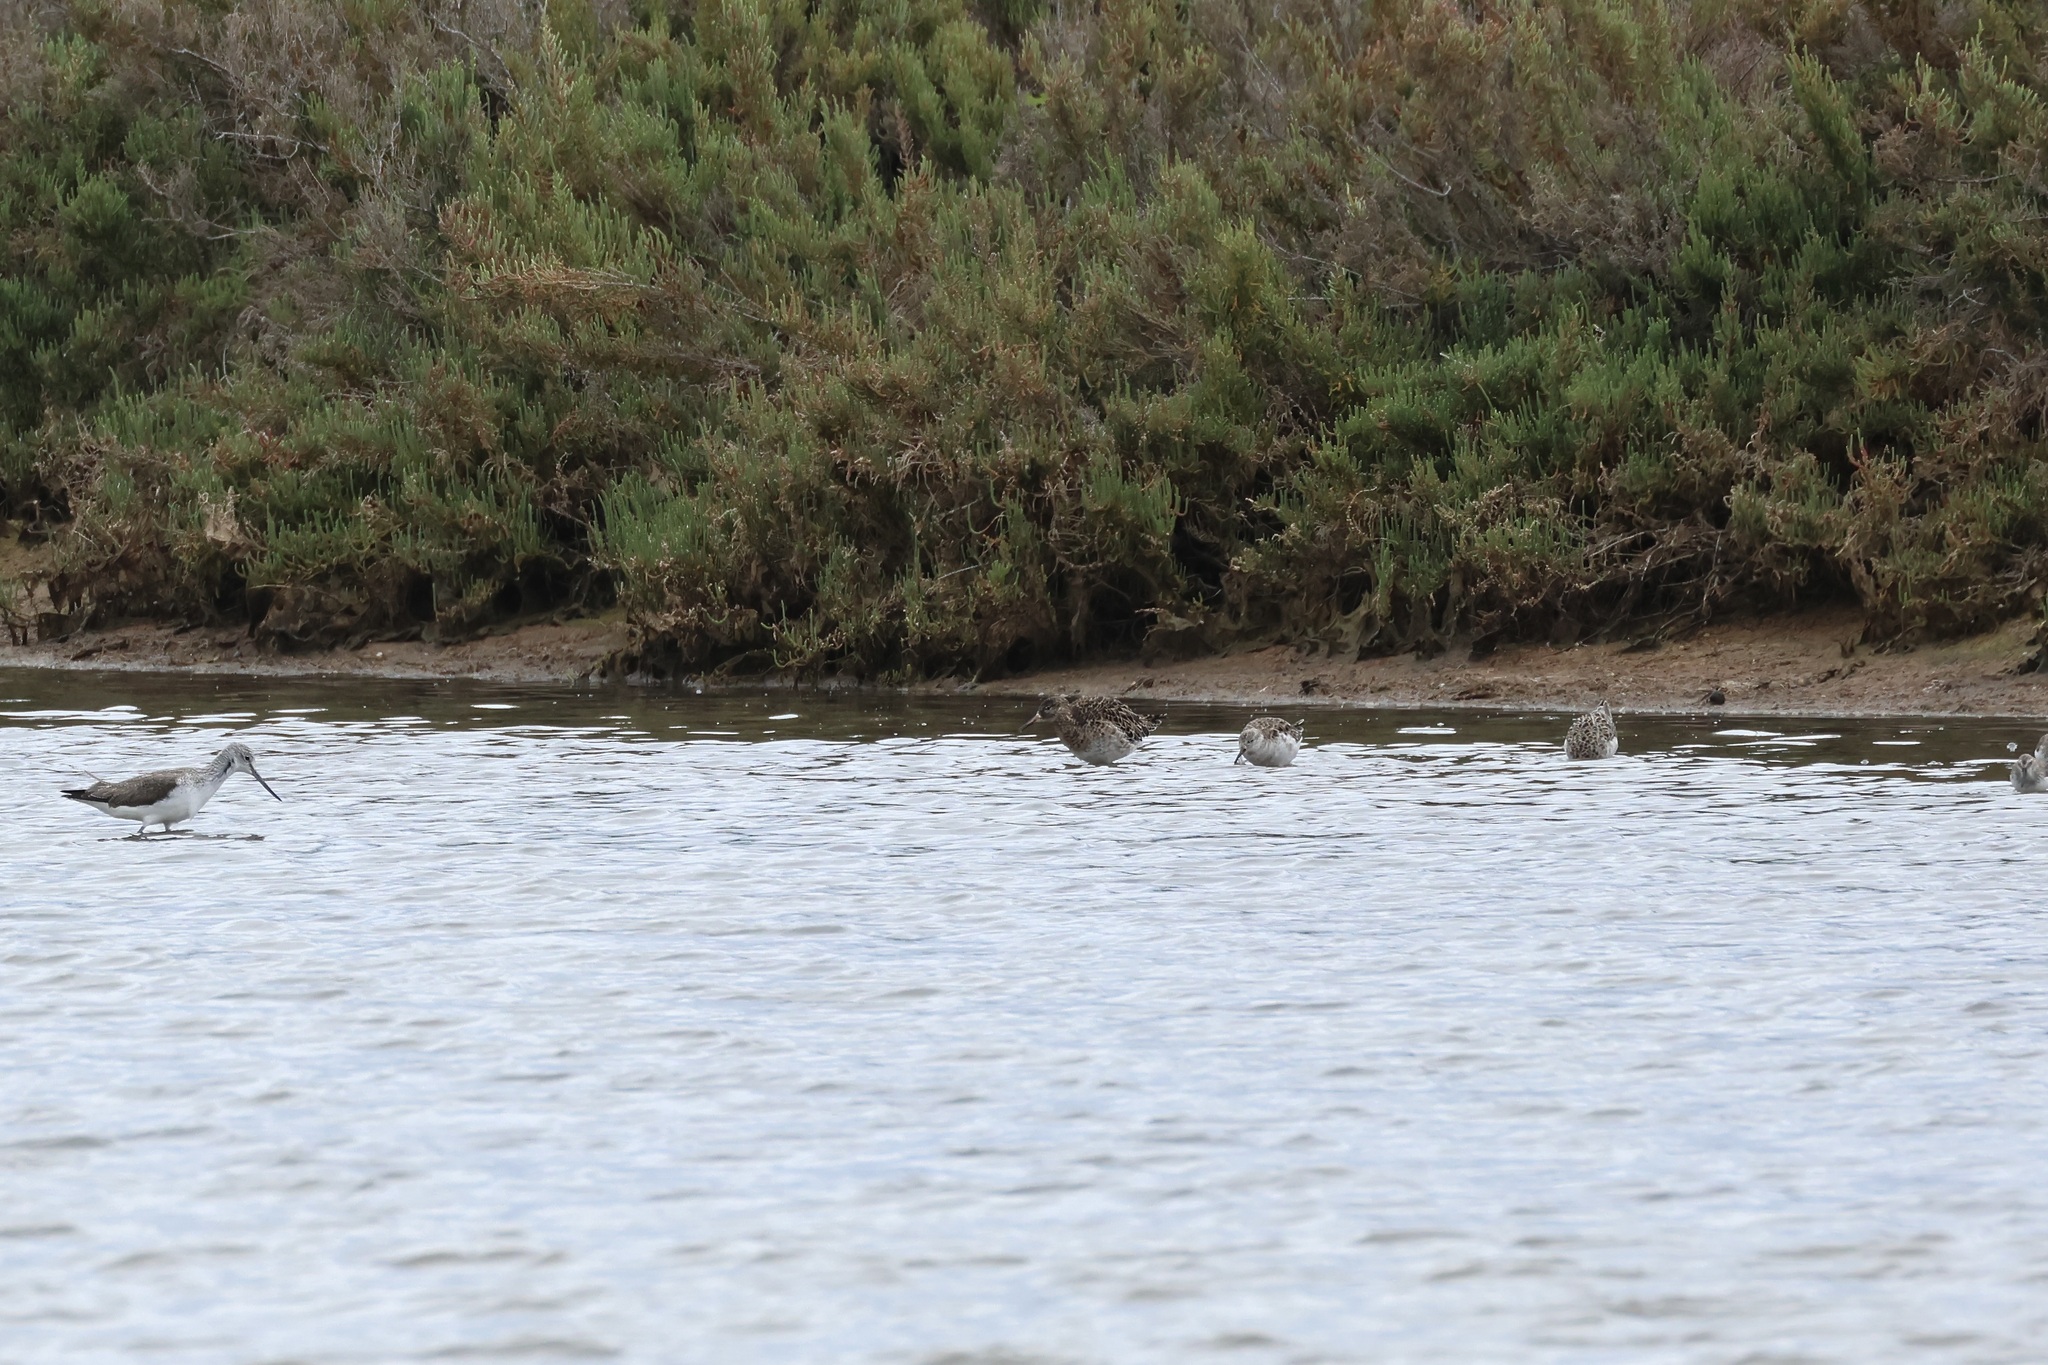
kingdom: Animalia
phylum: Chordata
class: Aves
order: Charadriiformes
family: Scolopacidae
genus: Calidris
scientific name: Calidris pugnax
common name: Ruff
